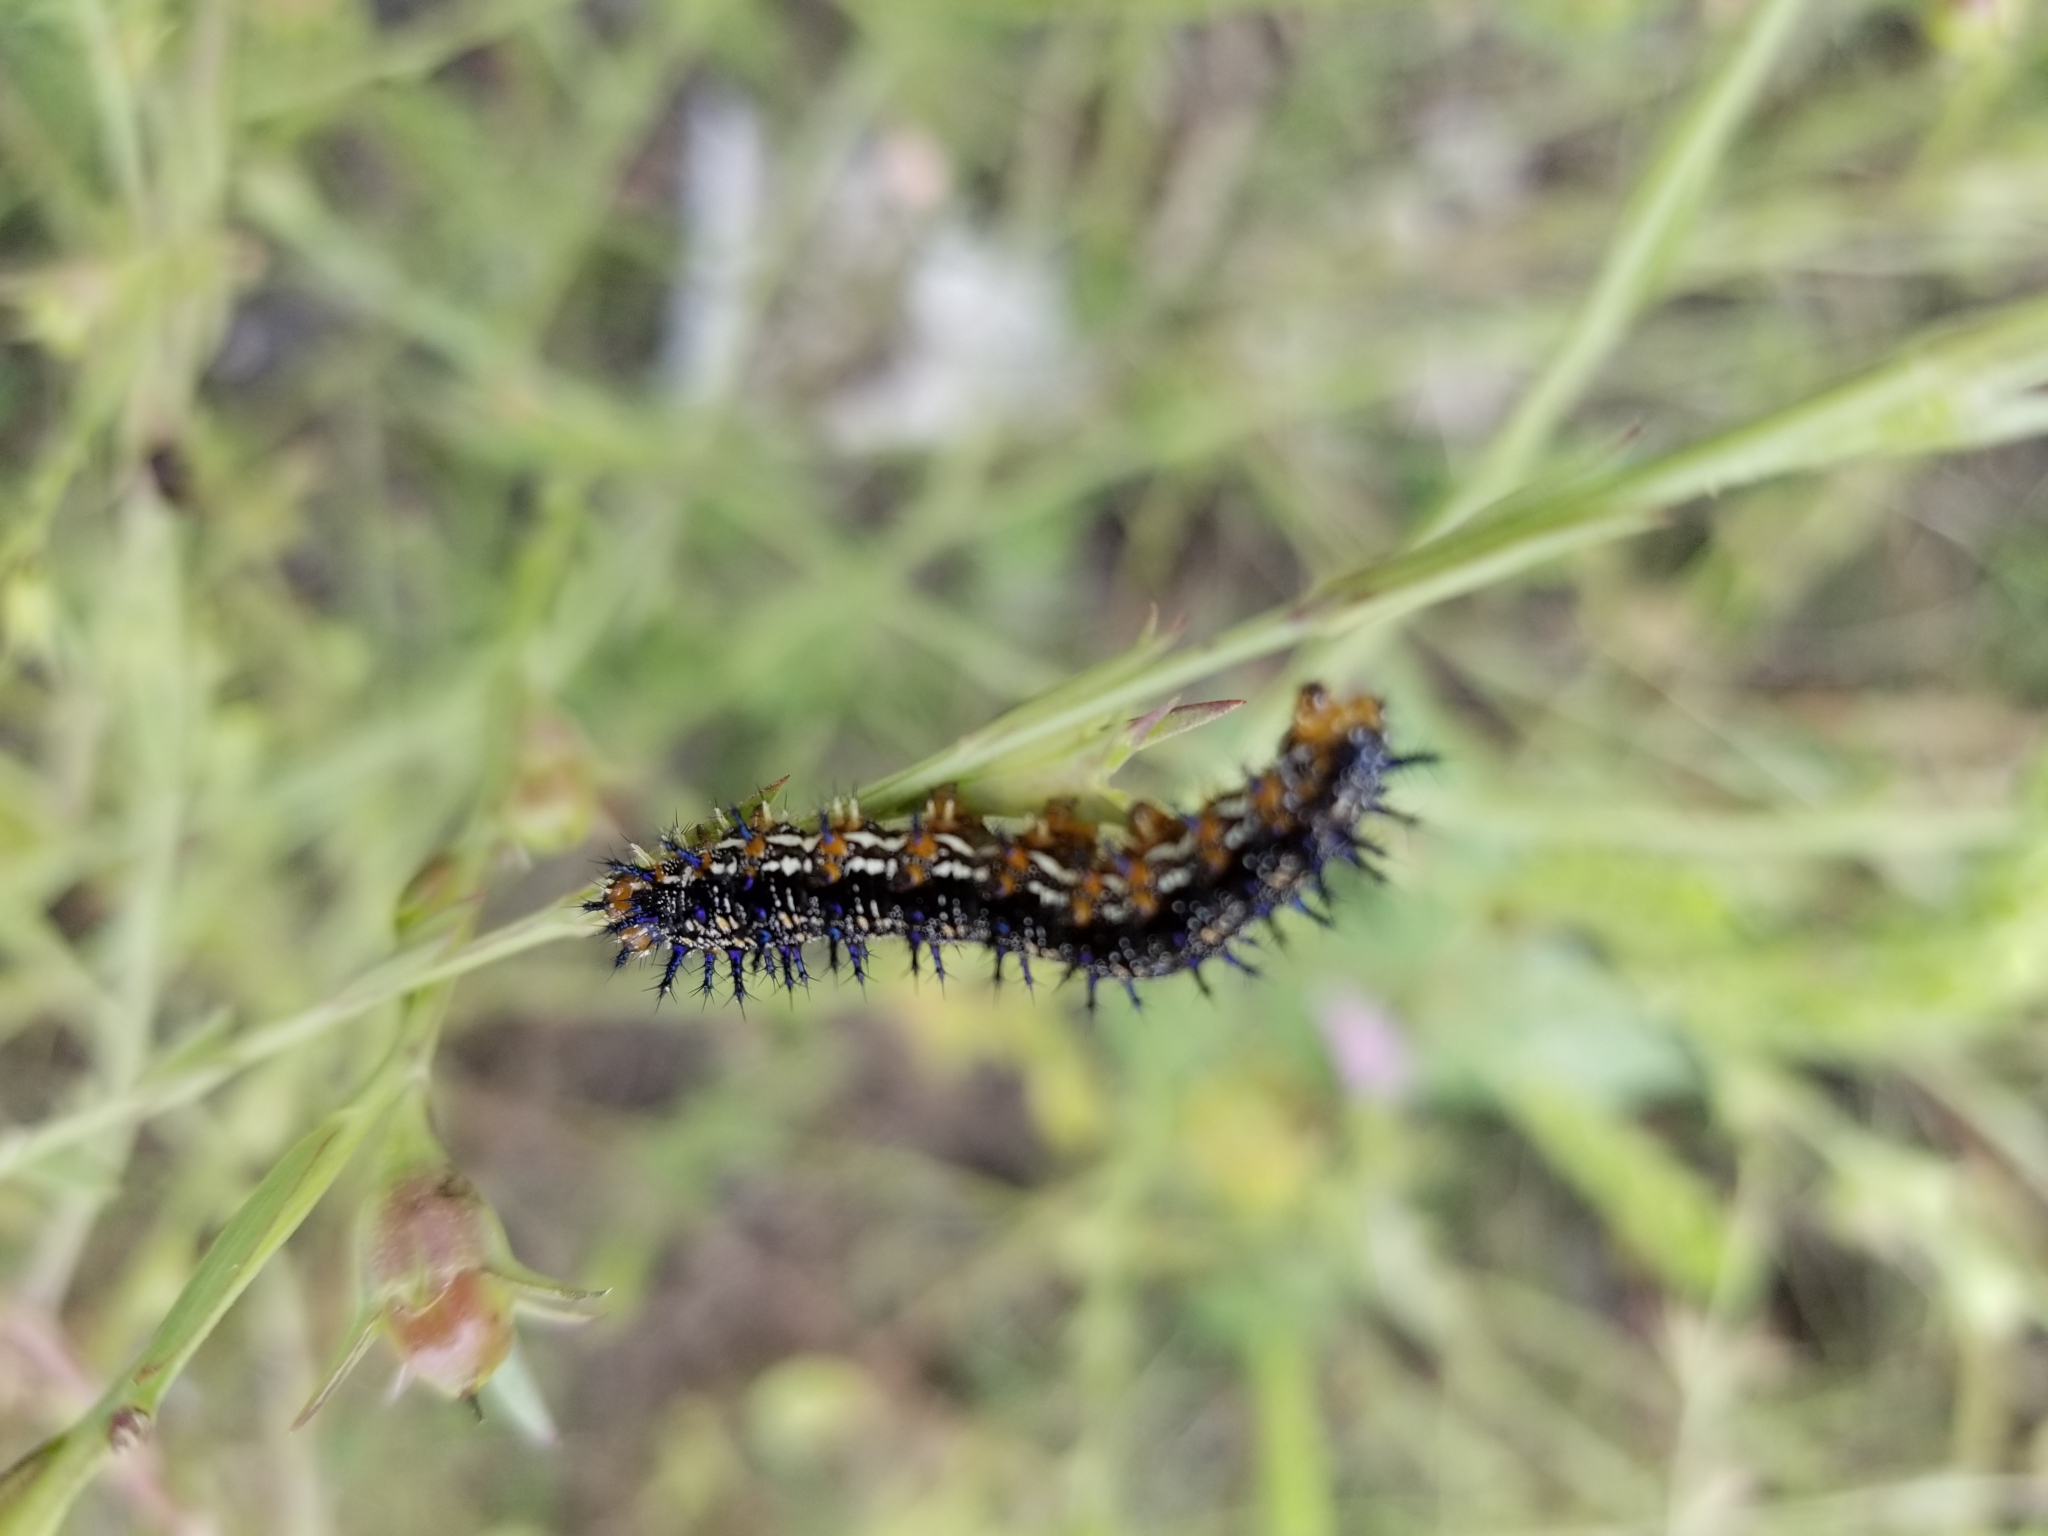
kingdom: Animalia
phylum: Arthropoda
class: Insecta
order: Lepidoptera
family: Nymphalidae
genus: Junonia
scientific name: Junonia coenia
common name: Common buckeye
